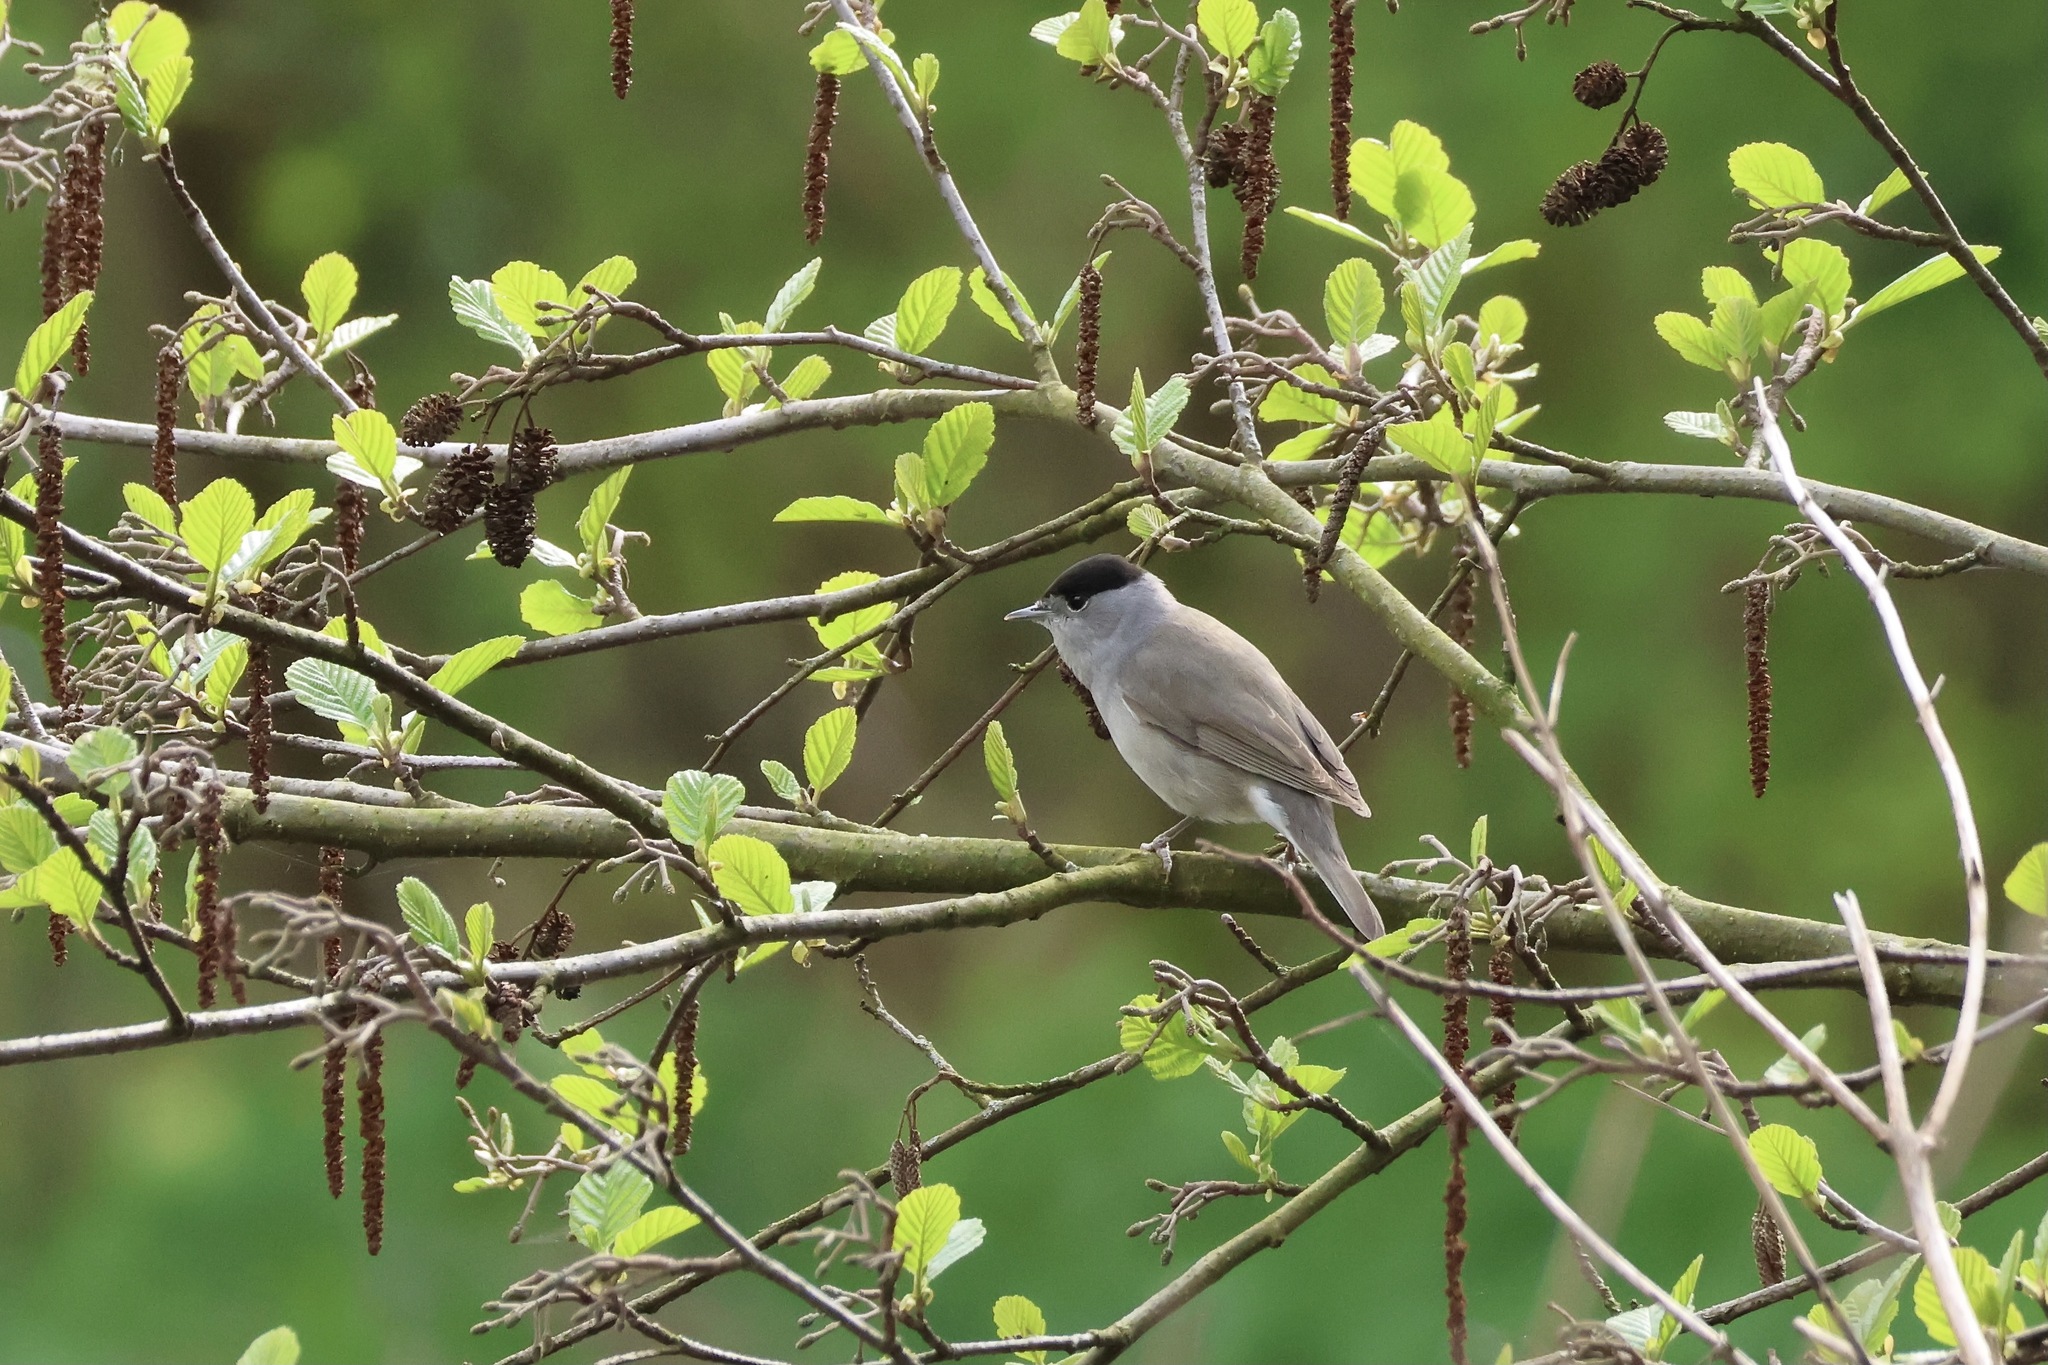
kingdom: Animalia
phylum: Chordata
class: Aves
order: Passeriformes
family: Sylviidae
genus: Sylvia
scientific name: Sylvia atricapilla
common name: Eurasian blackcap
